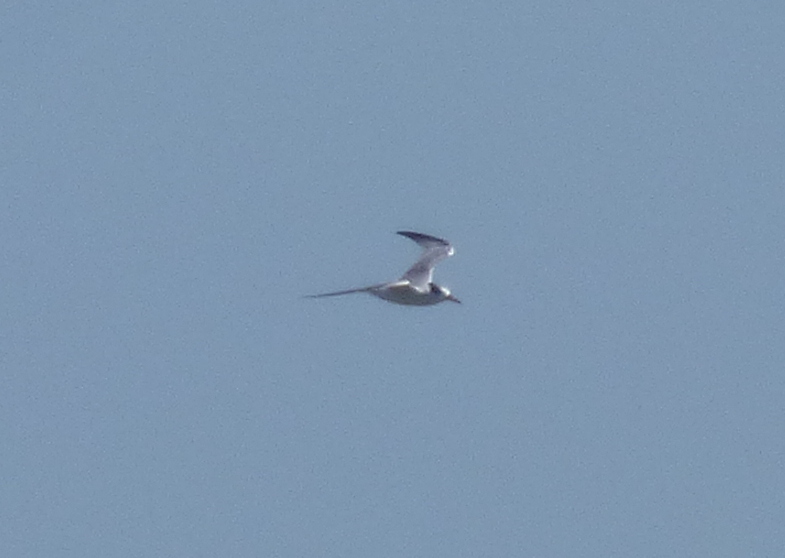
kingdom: Animalia
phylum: Chordata
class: Aves
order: Charadriiformes
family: Laridae
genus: Sternula
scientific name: Sternula superciliaris
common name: Yellow-billed tern
